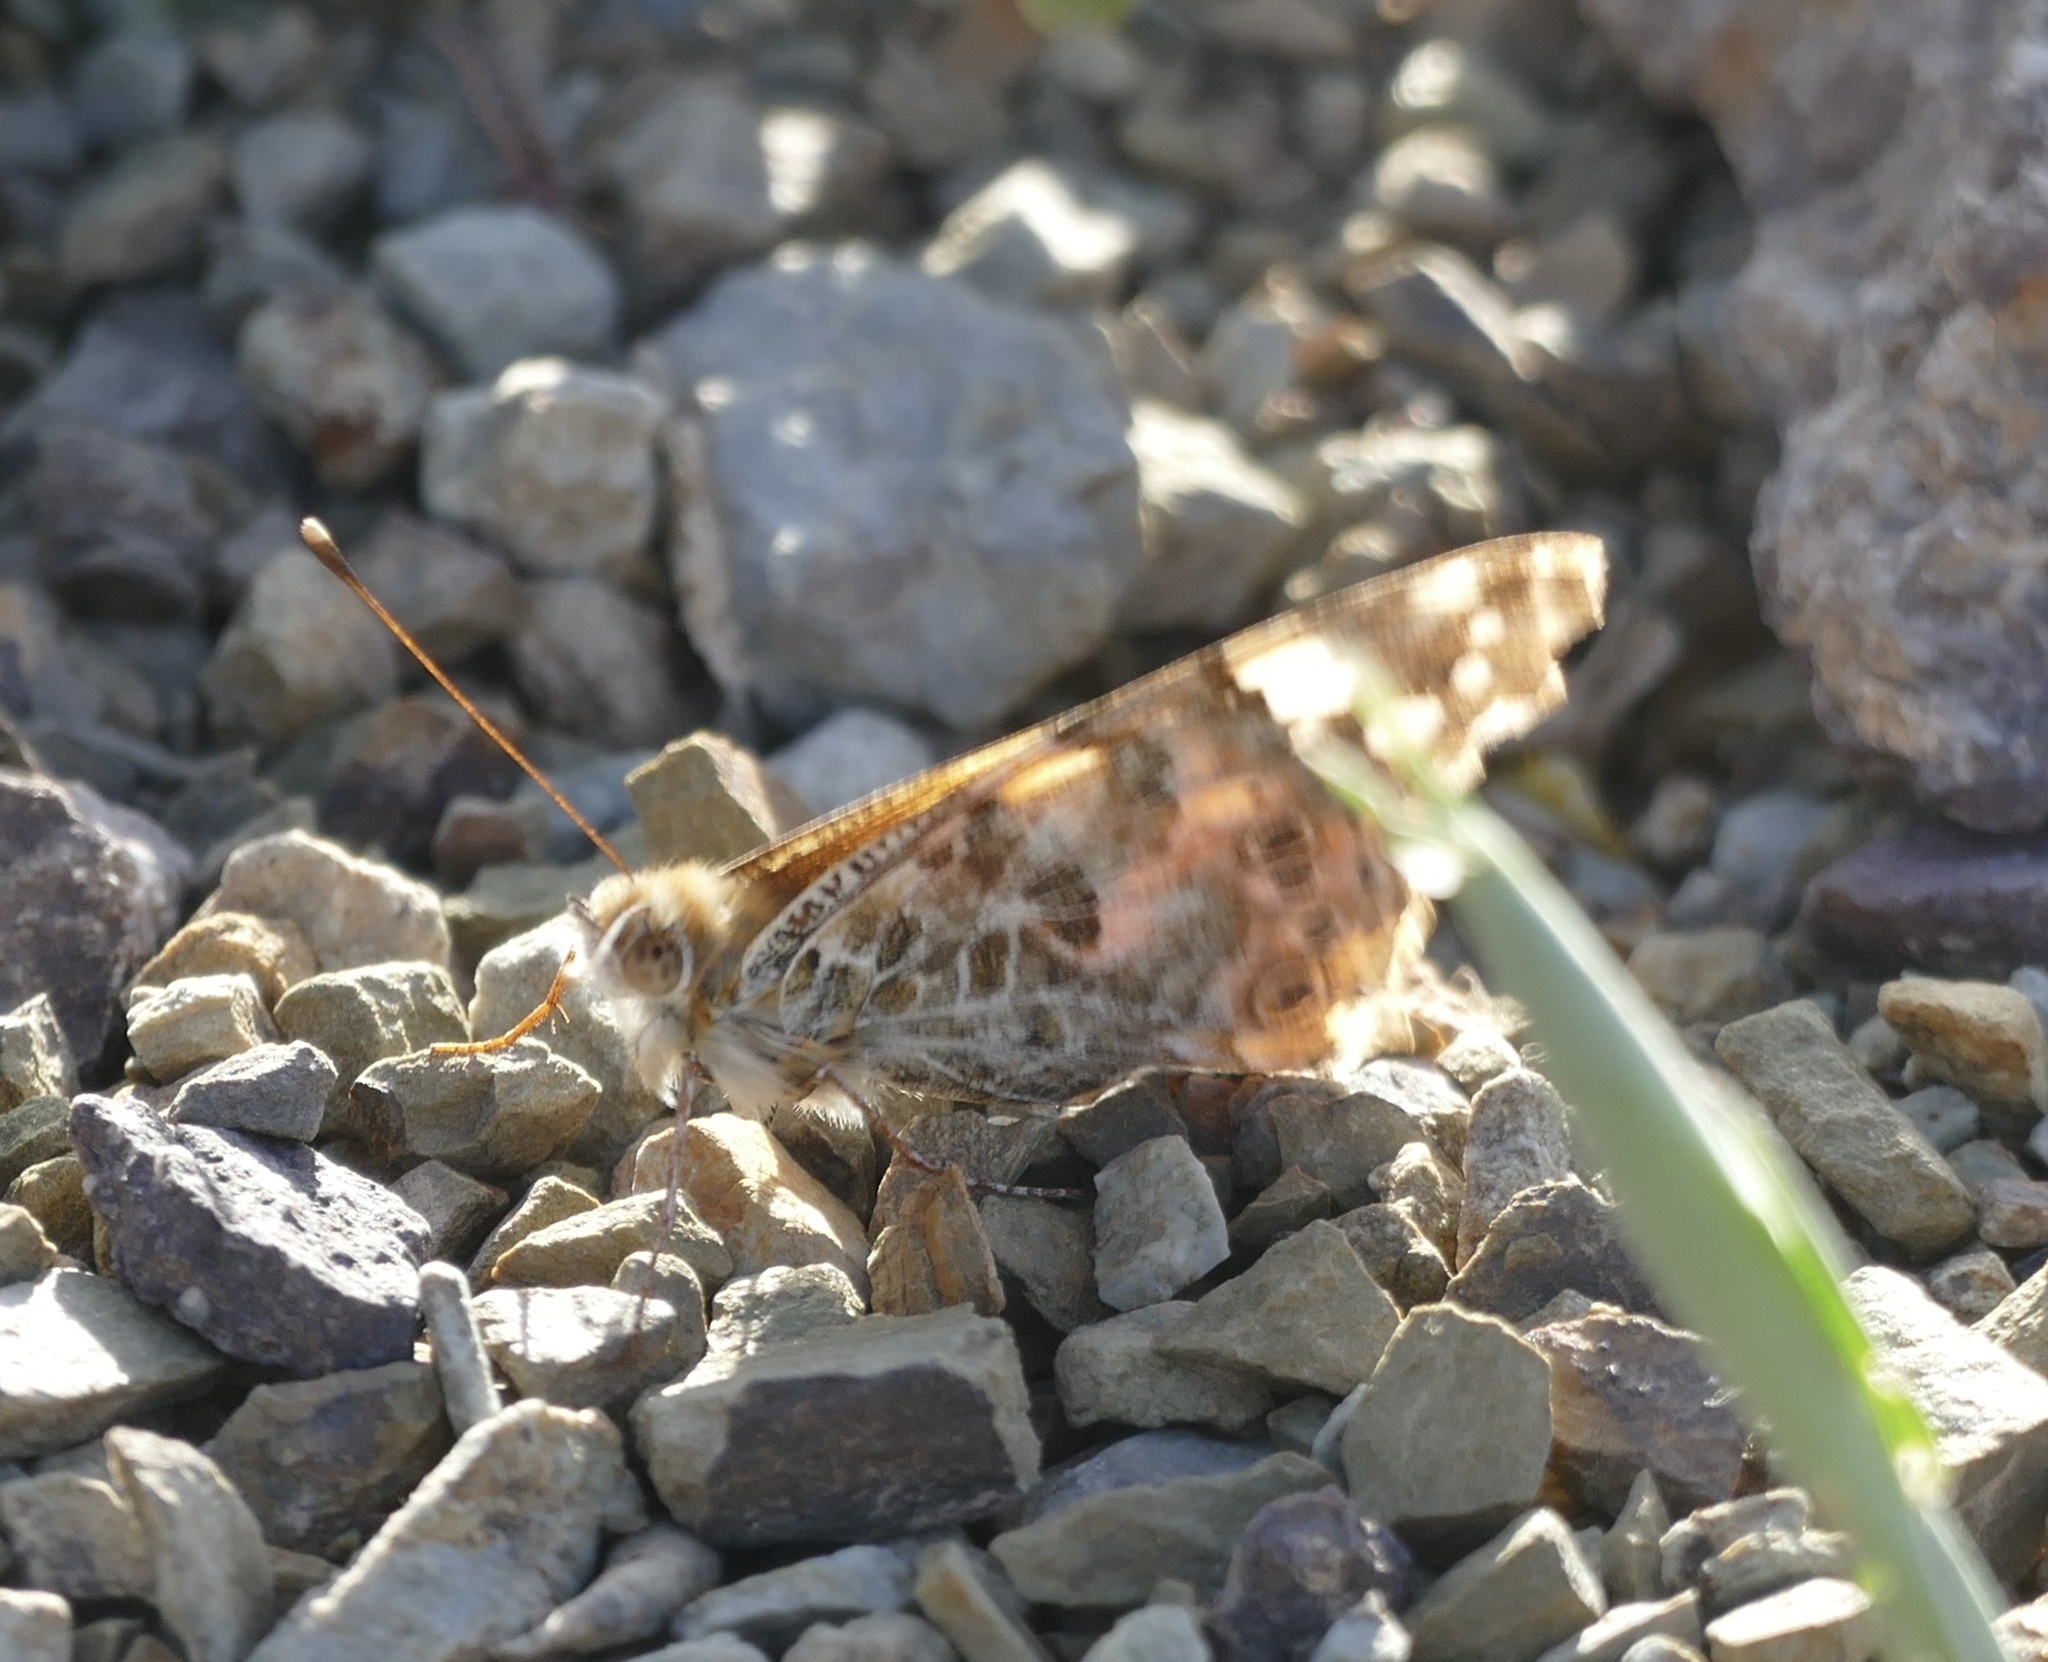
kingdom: Animalia
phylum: Arthropoda
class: Insecta
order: Lepidoptera
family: Nymphalidae
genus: Vanessa
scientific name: Vanessa cardui
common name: Painted lady
